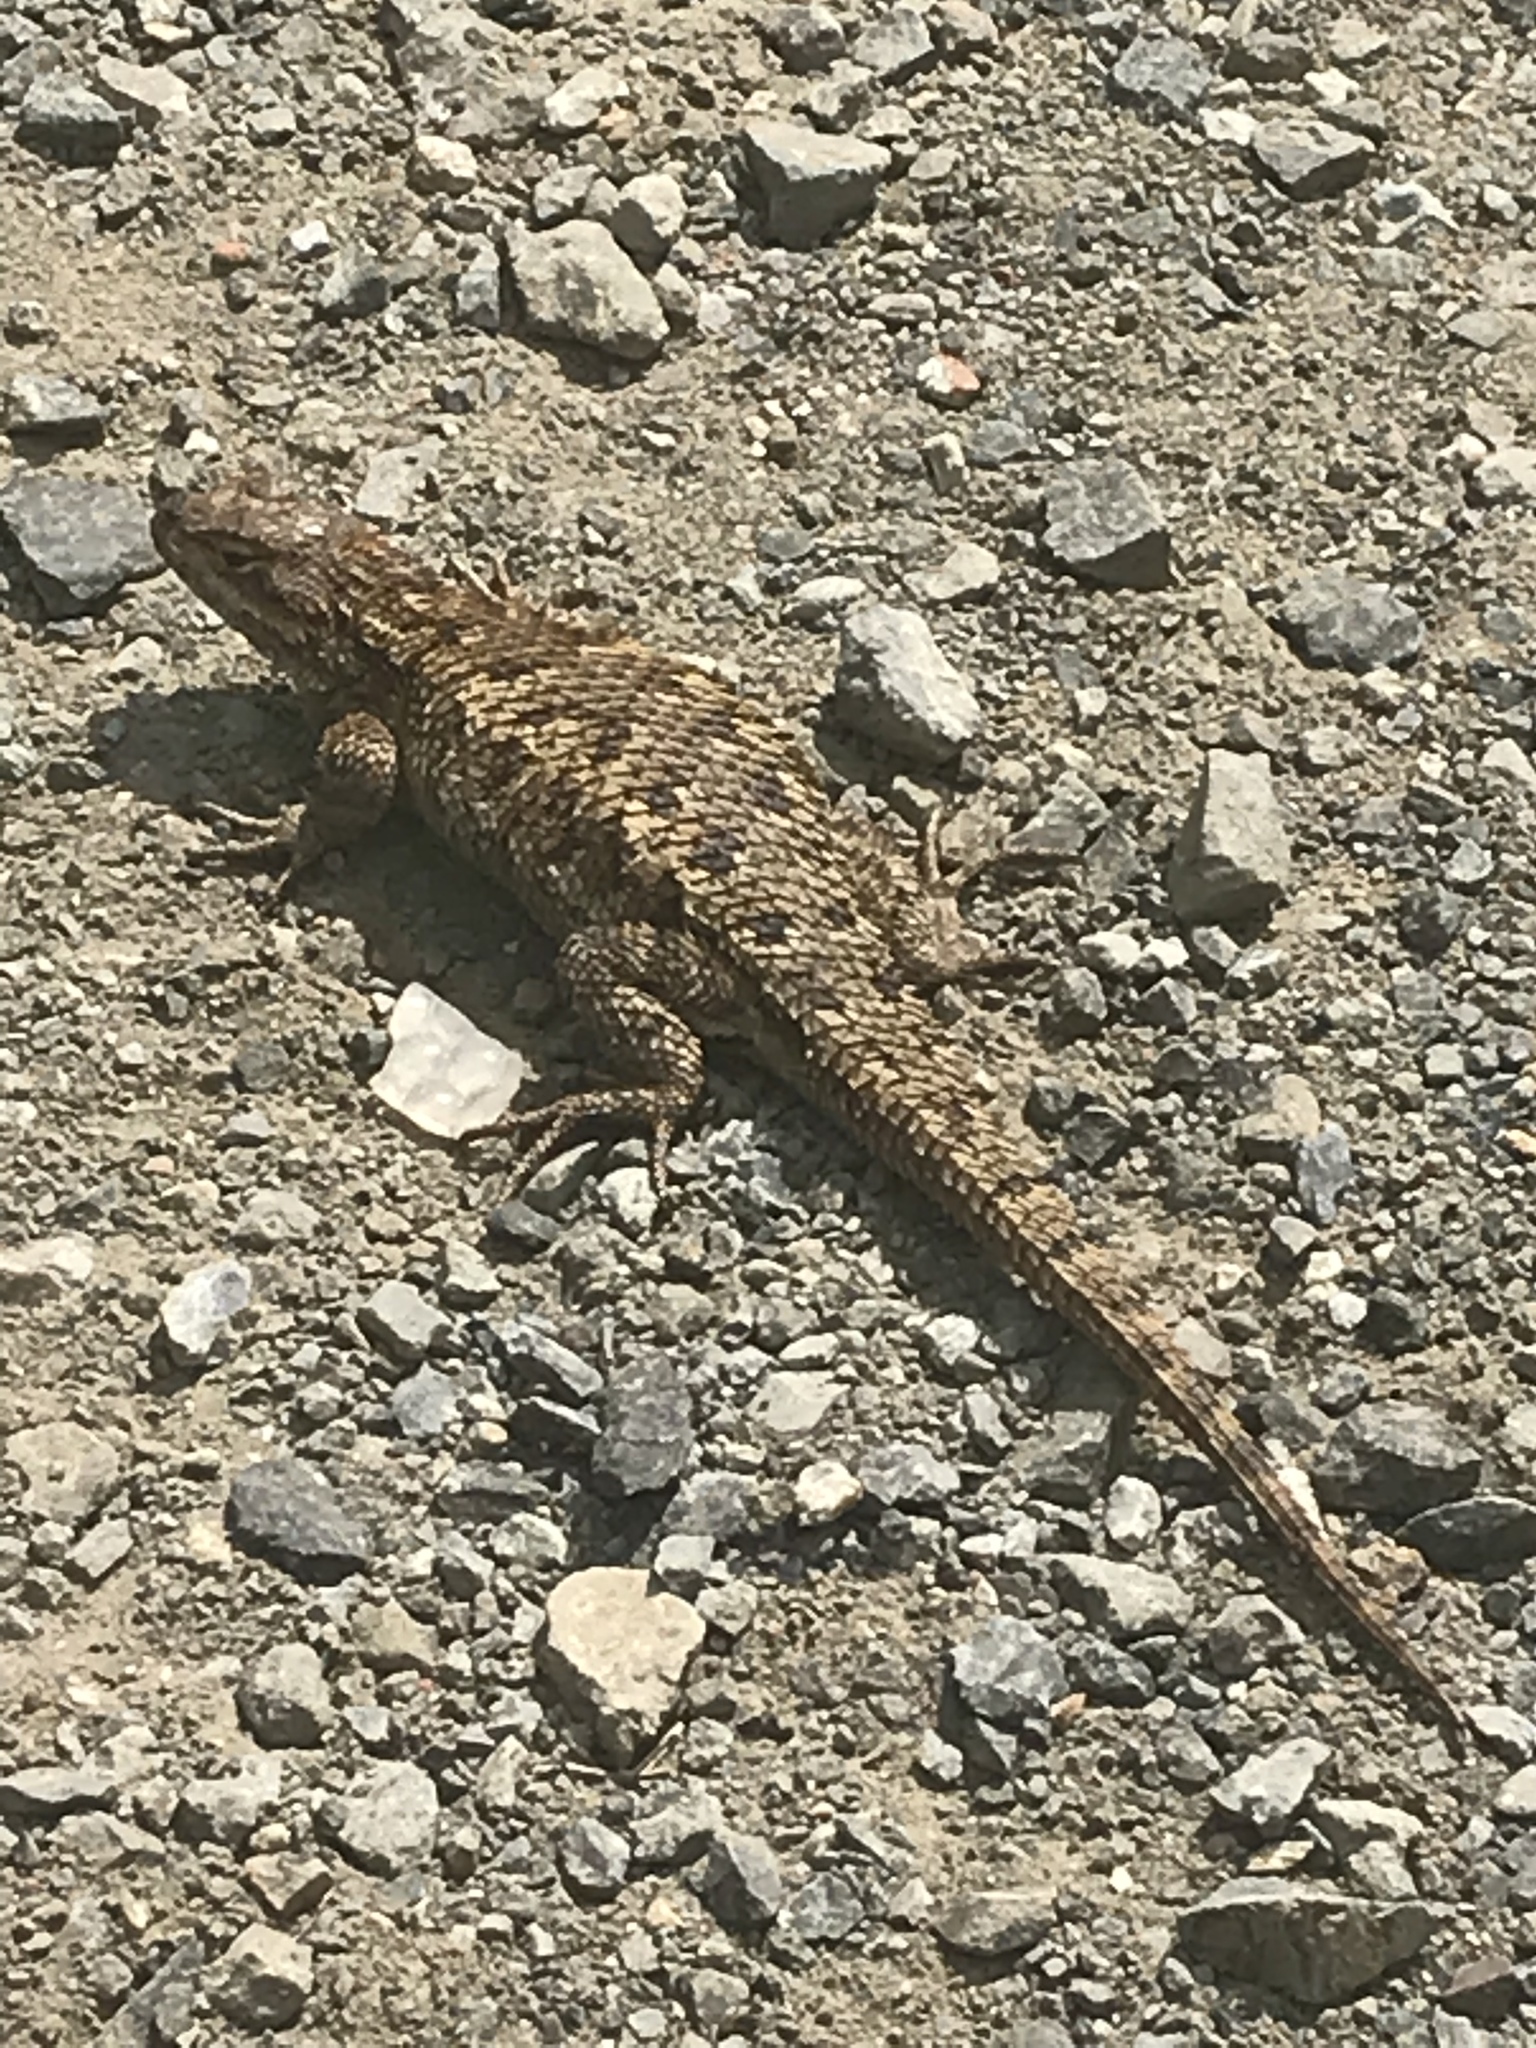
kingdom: Animalia
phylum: Chordata
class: Squamata
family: Phrynosomatidae
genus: Sceloporus
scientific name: Sceloporus occidentalis
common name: Western fence lizard
